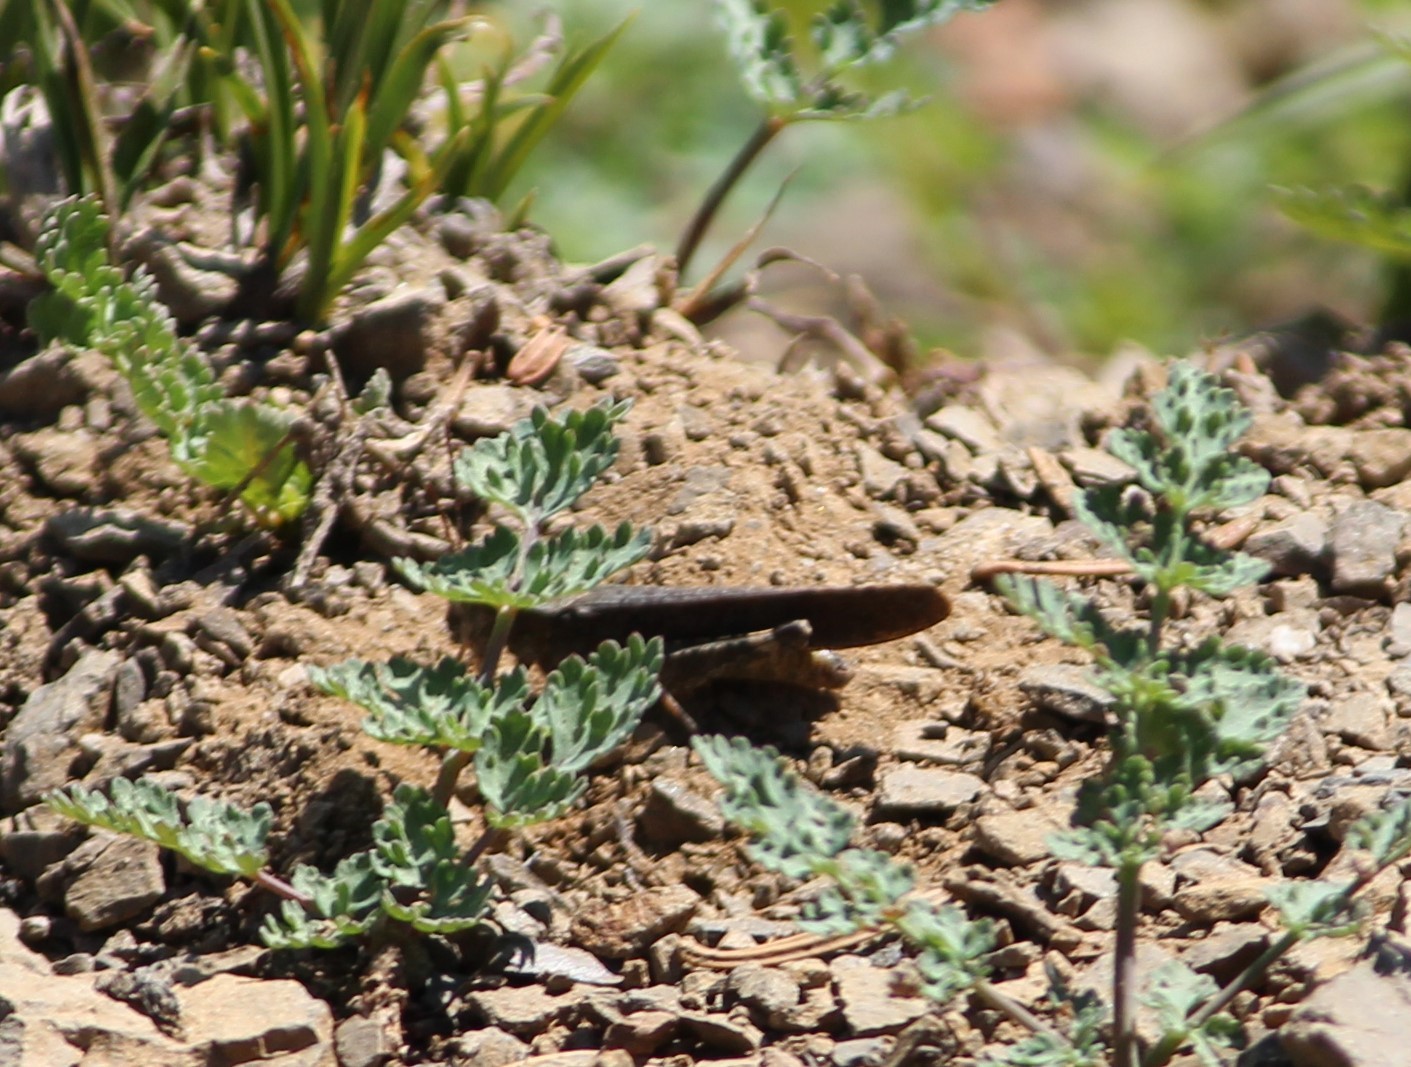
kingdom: Animalia
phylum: Arthropoda
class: Insecta
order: Orthoptera
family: Acrididae
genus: Trimerotropis
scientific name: Trimerotropis verruculata
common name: Crackling forest grasshopper
